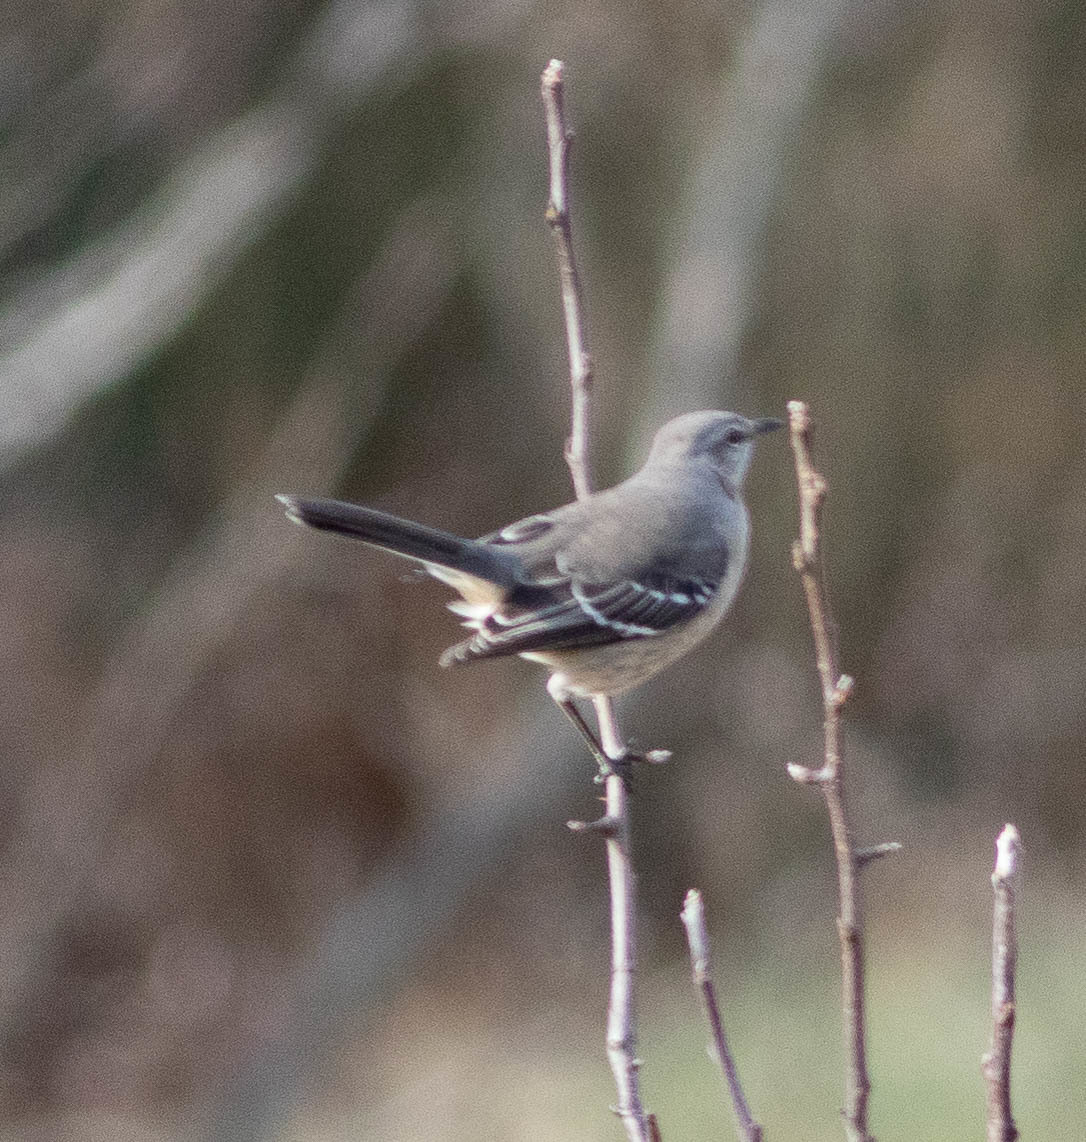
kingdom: Animalia
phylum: Chordata
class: Aves
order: Passeriformes
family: Mimidae
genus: Mimus
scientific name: Mimus polyglottos
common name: Northern mockingbird
